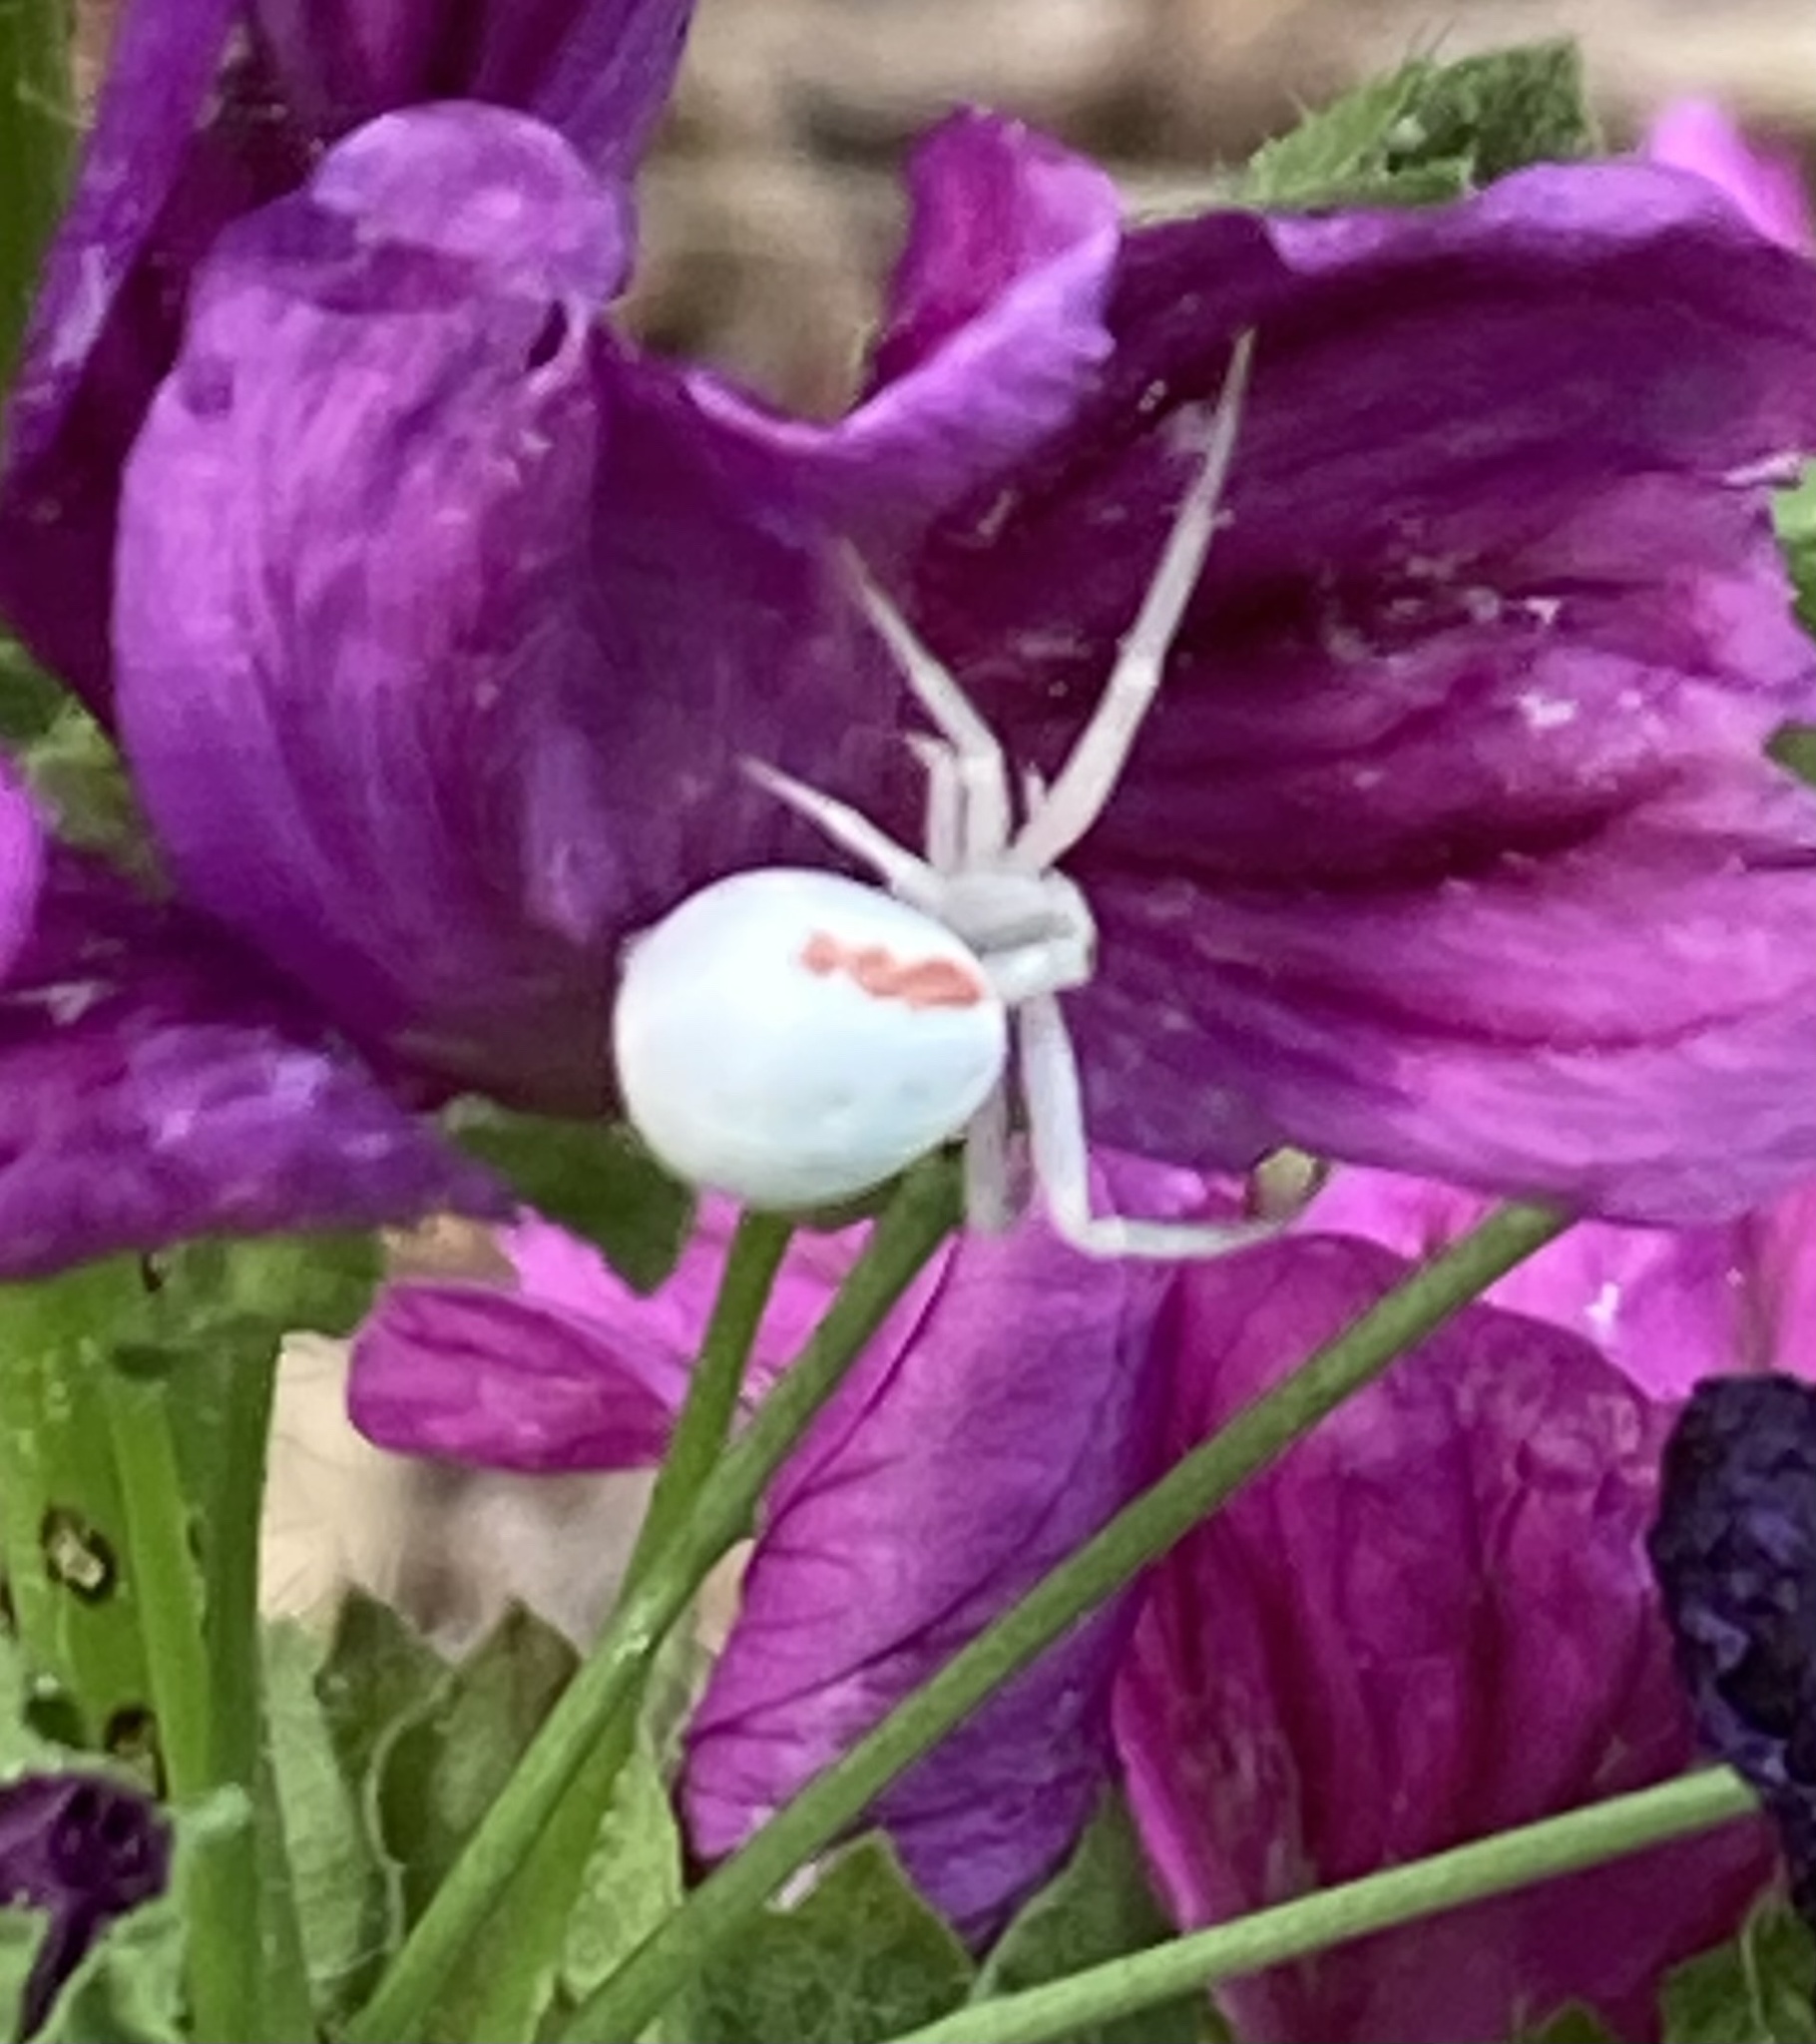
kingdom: Animalia
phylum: Arthropoda
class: Arachnida
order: Araneae
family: Thomisidae
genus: Misumena
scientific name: Misumena vatia
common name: Goldenrod crab spider
